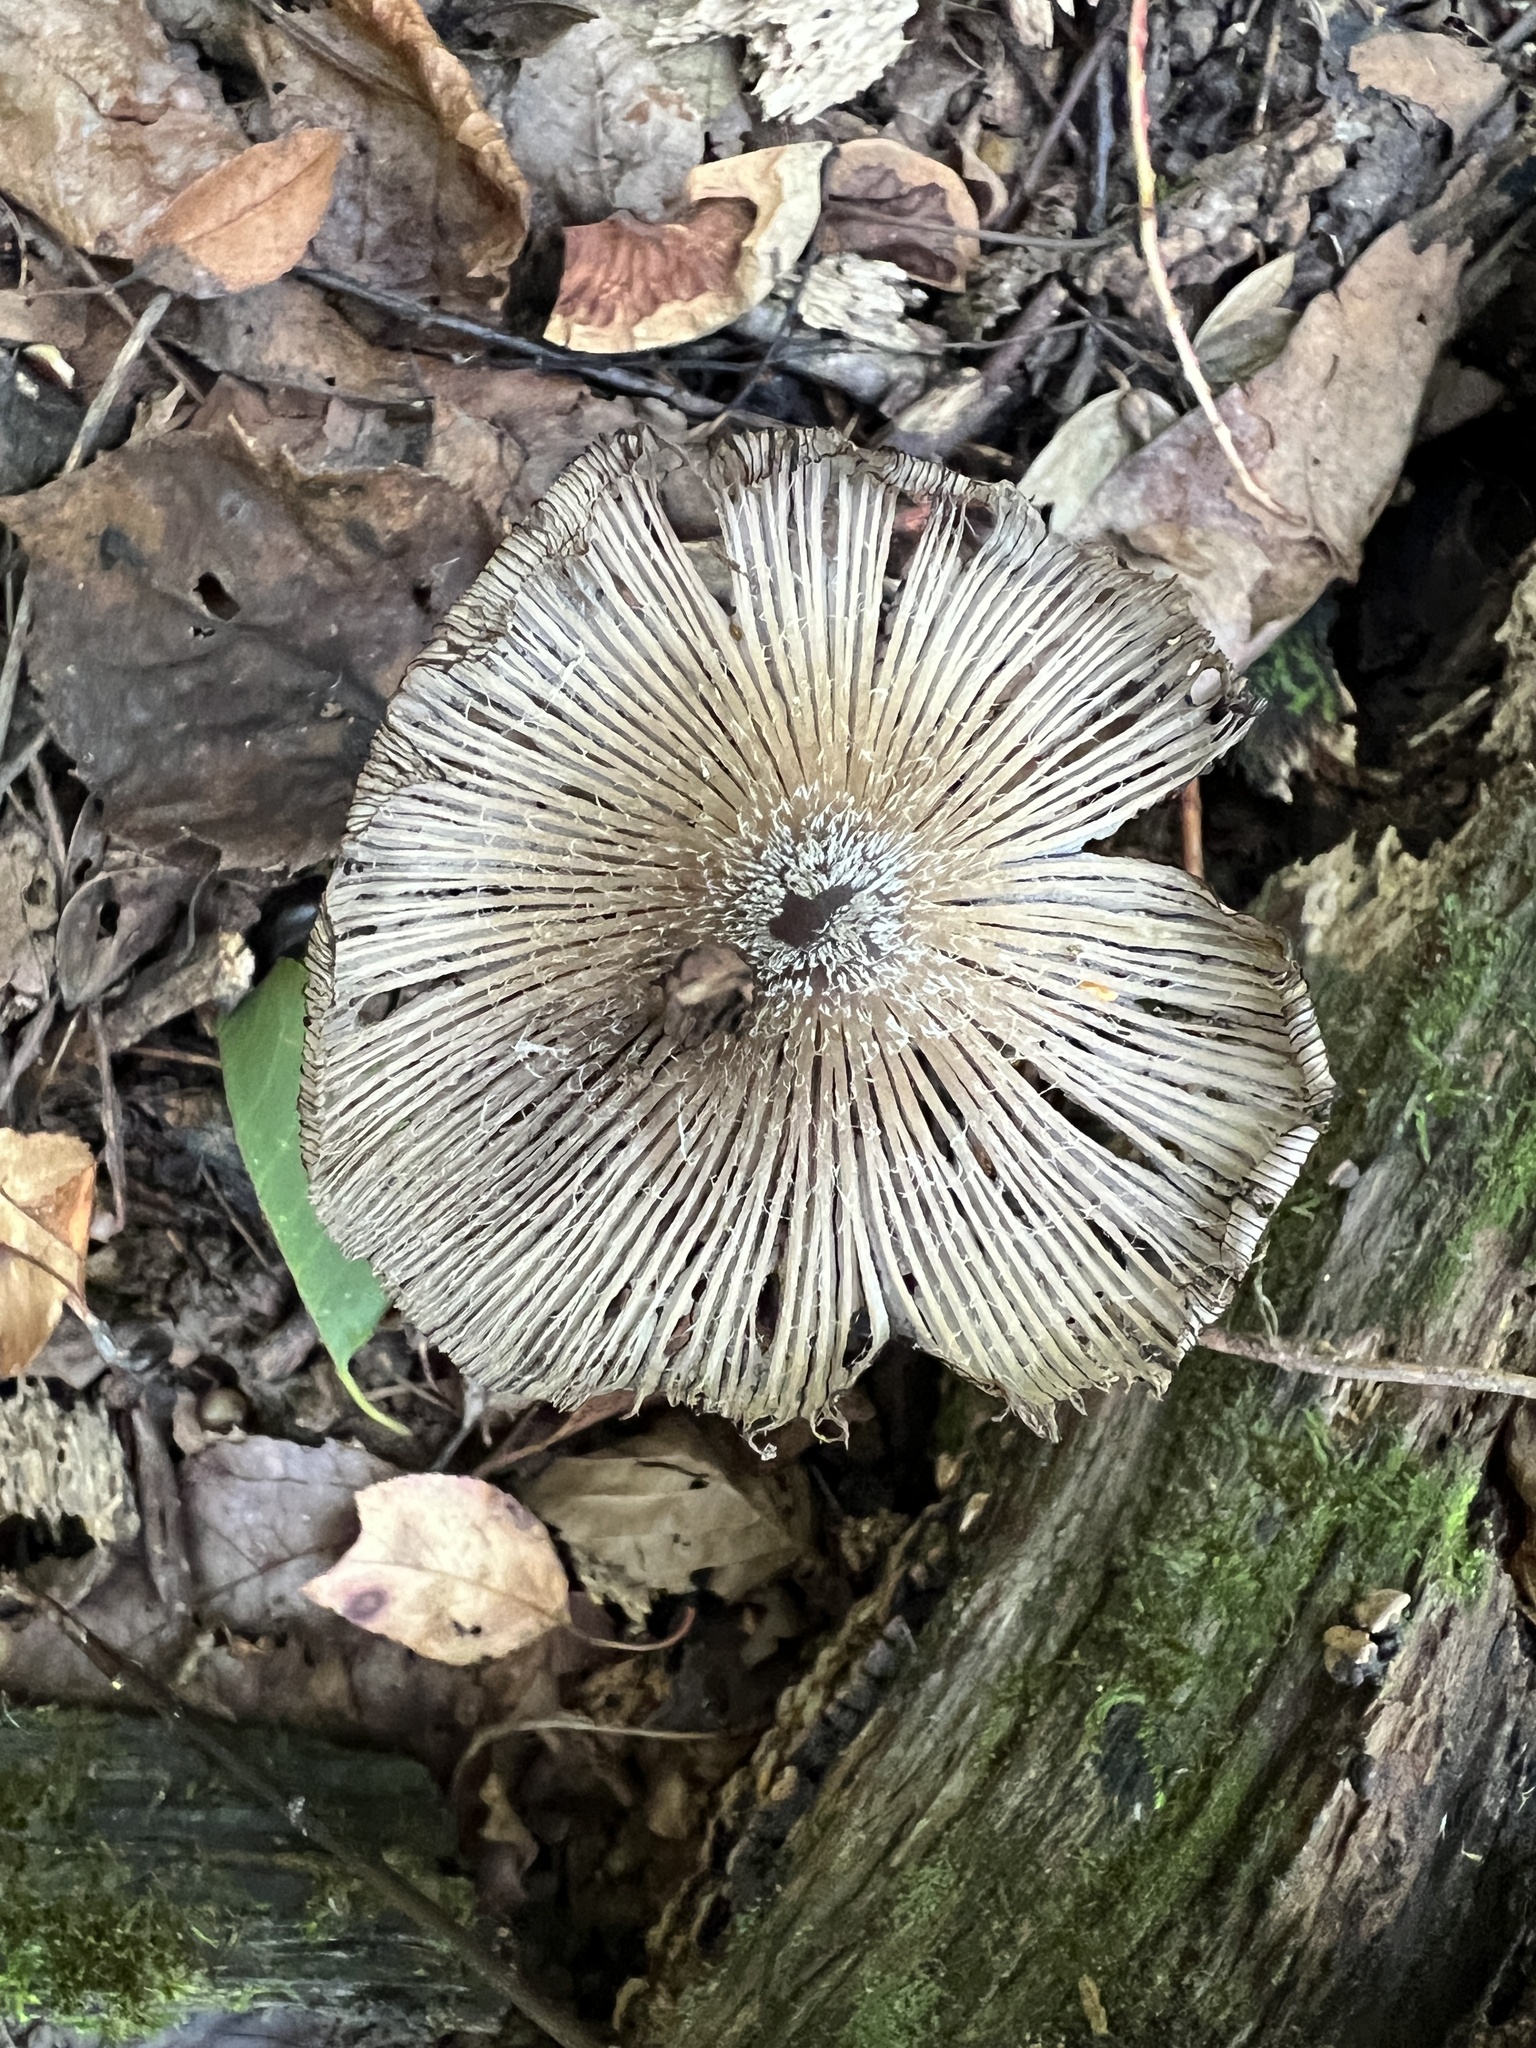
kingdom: Fungi
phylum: Basidiomycota
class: Agaricomycetes
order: Agaricales
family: Psathyrellaceae
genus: Coprinopsis
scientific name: Coprinopsis lagopus
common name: Hare'sfoot inkcap
